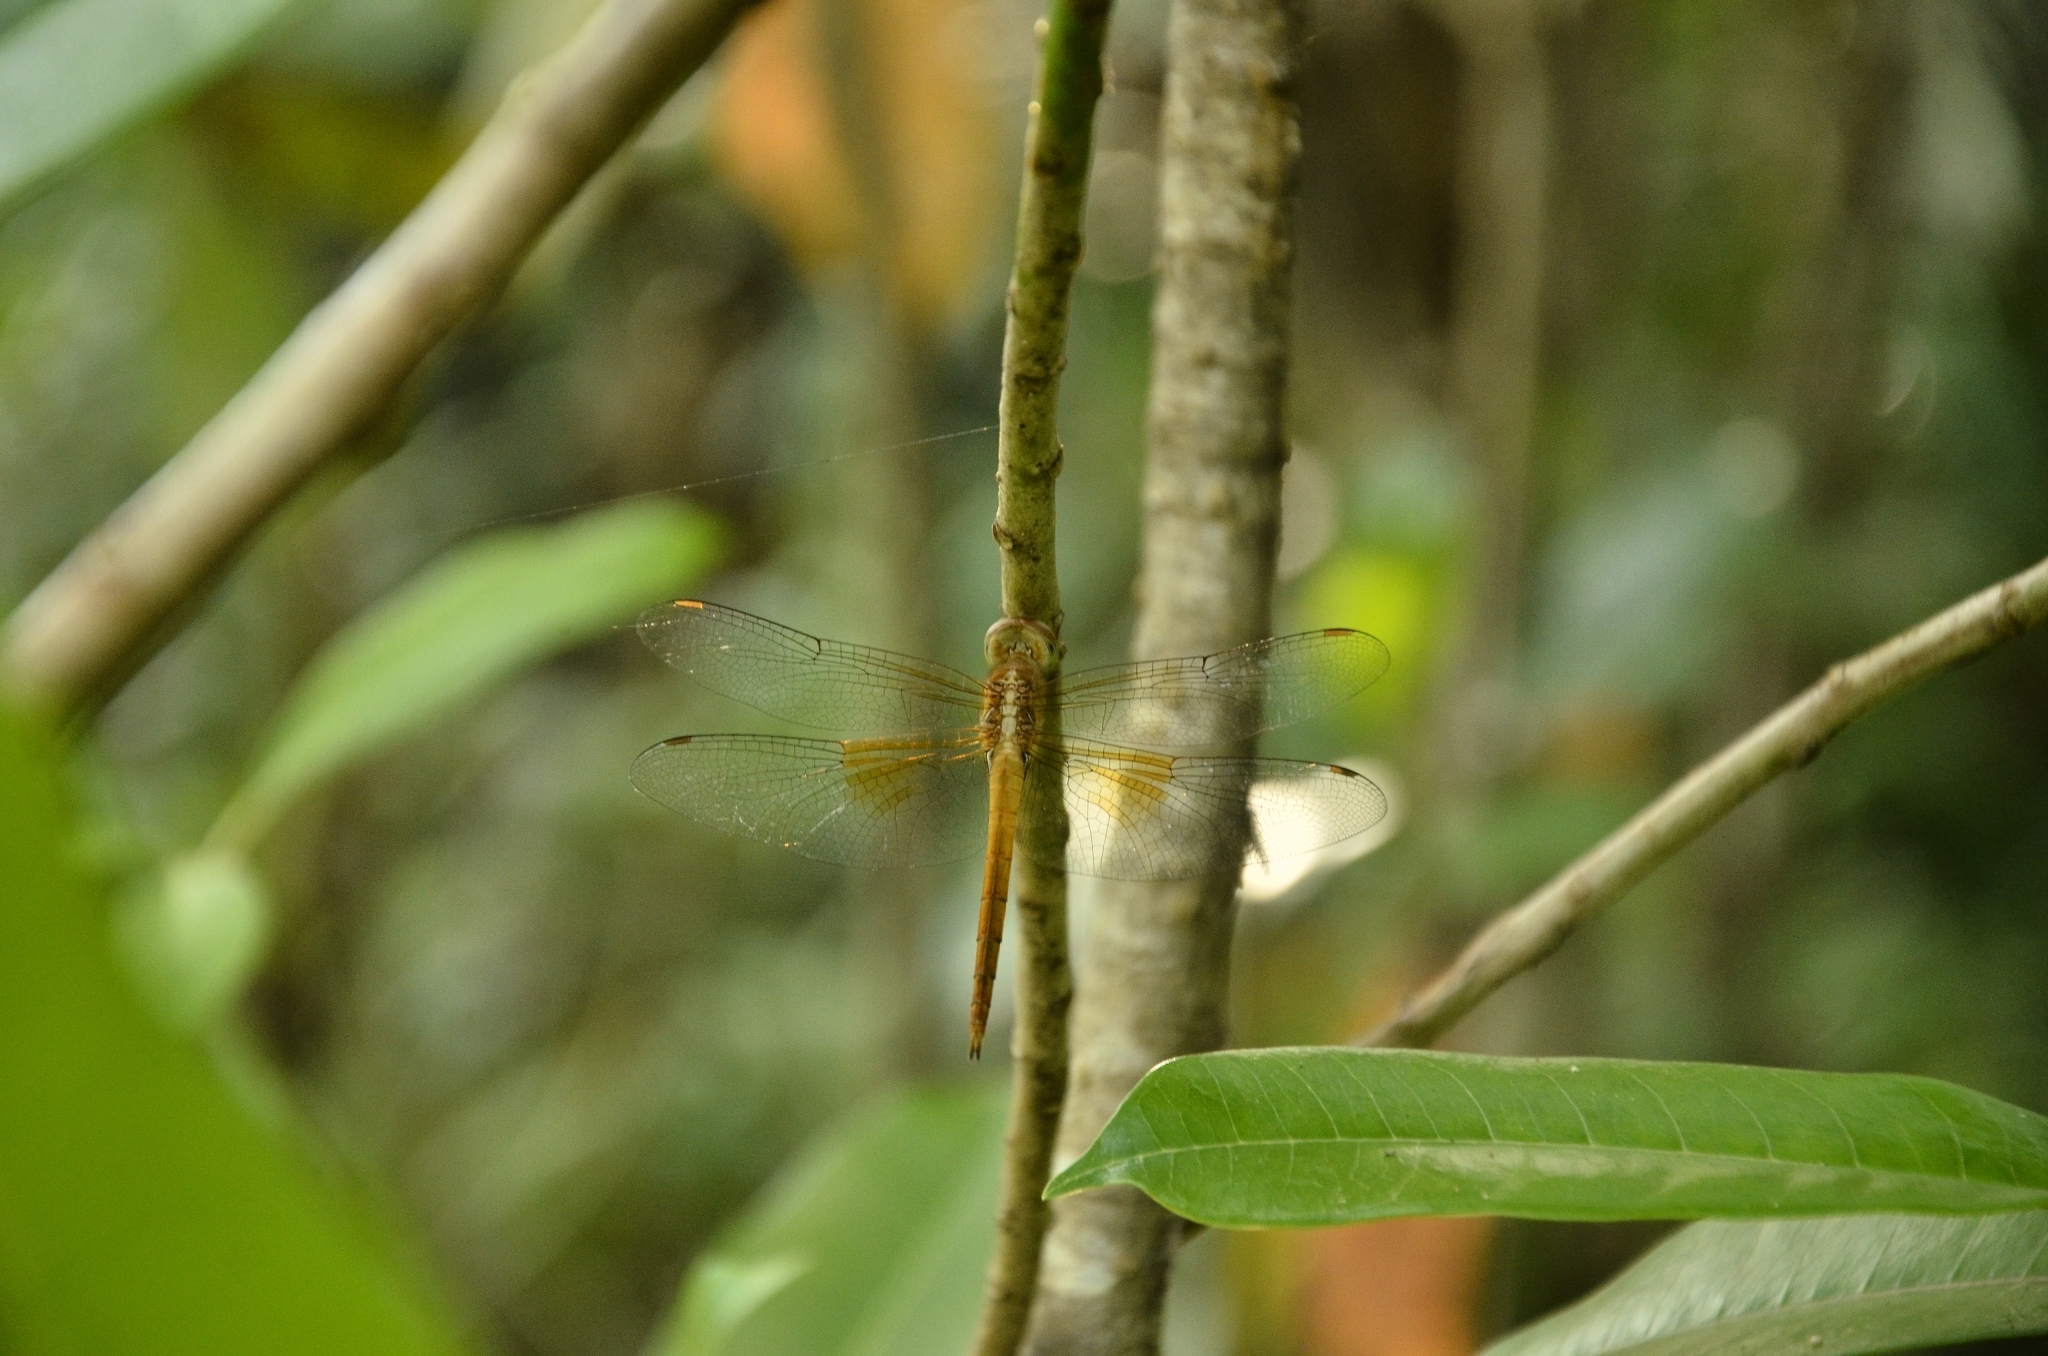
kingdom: Animalia
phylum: Arthropoda
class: Insecta
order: Odonata
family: Libellulidae
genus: Tholymis
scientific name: Tholymis tillarga
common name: Coral-tailed cloud wing
